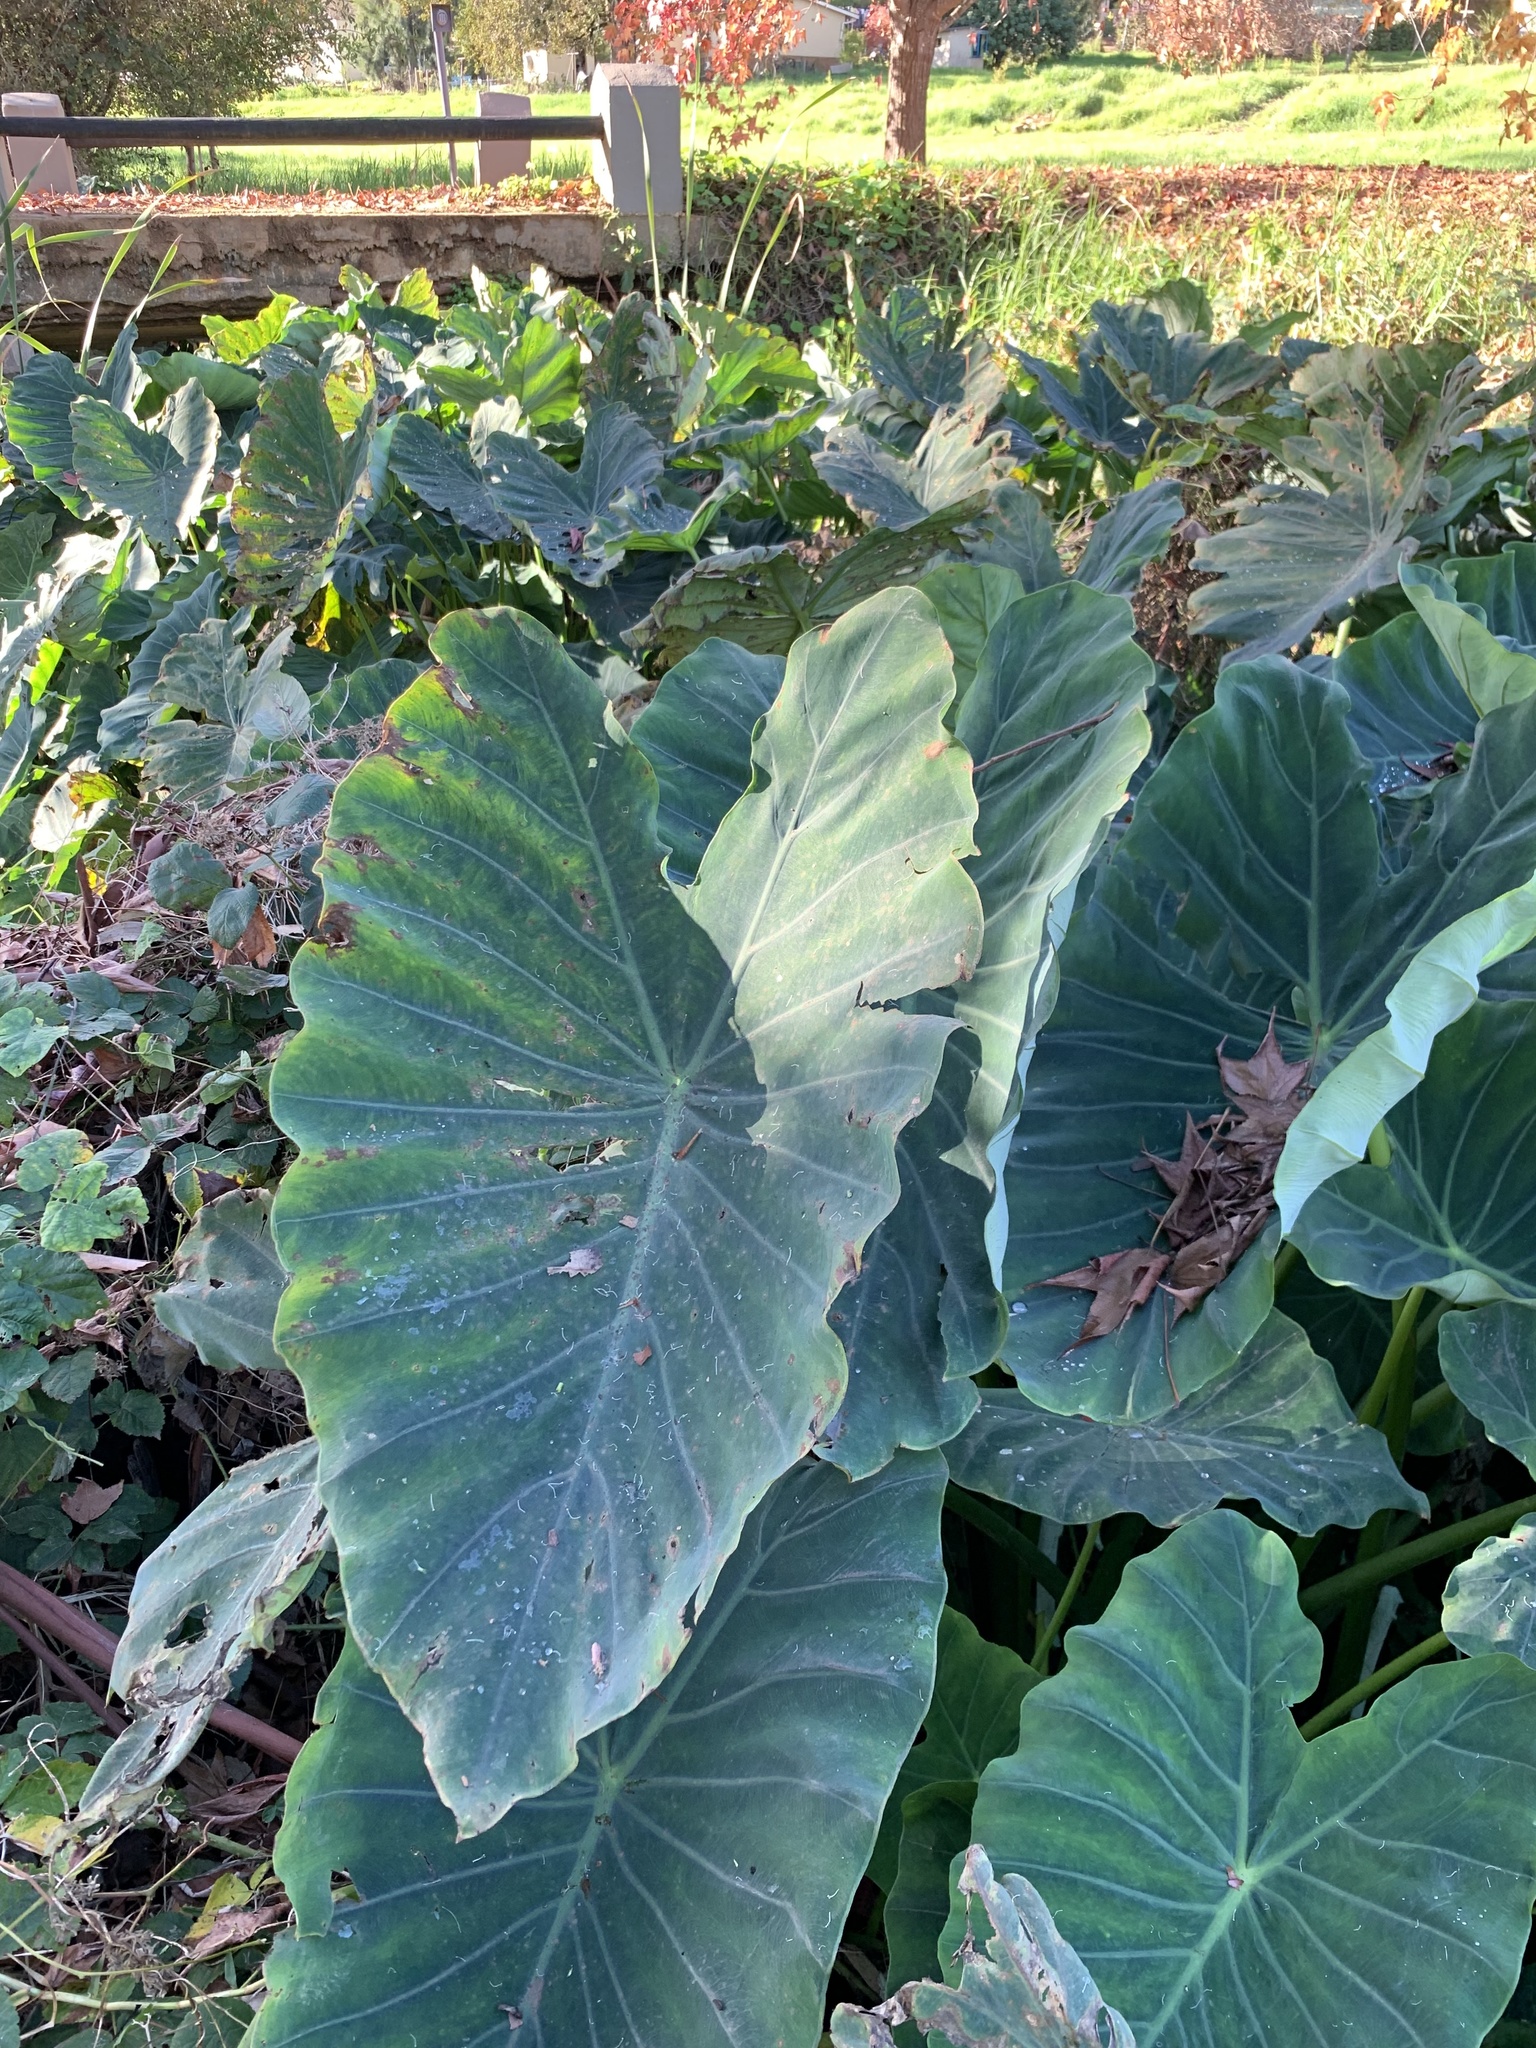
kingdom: Plantae
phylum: Tracheophyta
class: Liliopsida
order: Alismatales
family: Araceae
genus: Colocasia
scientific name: Colocasia esculenta
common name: Taro
